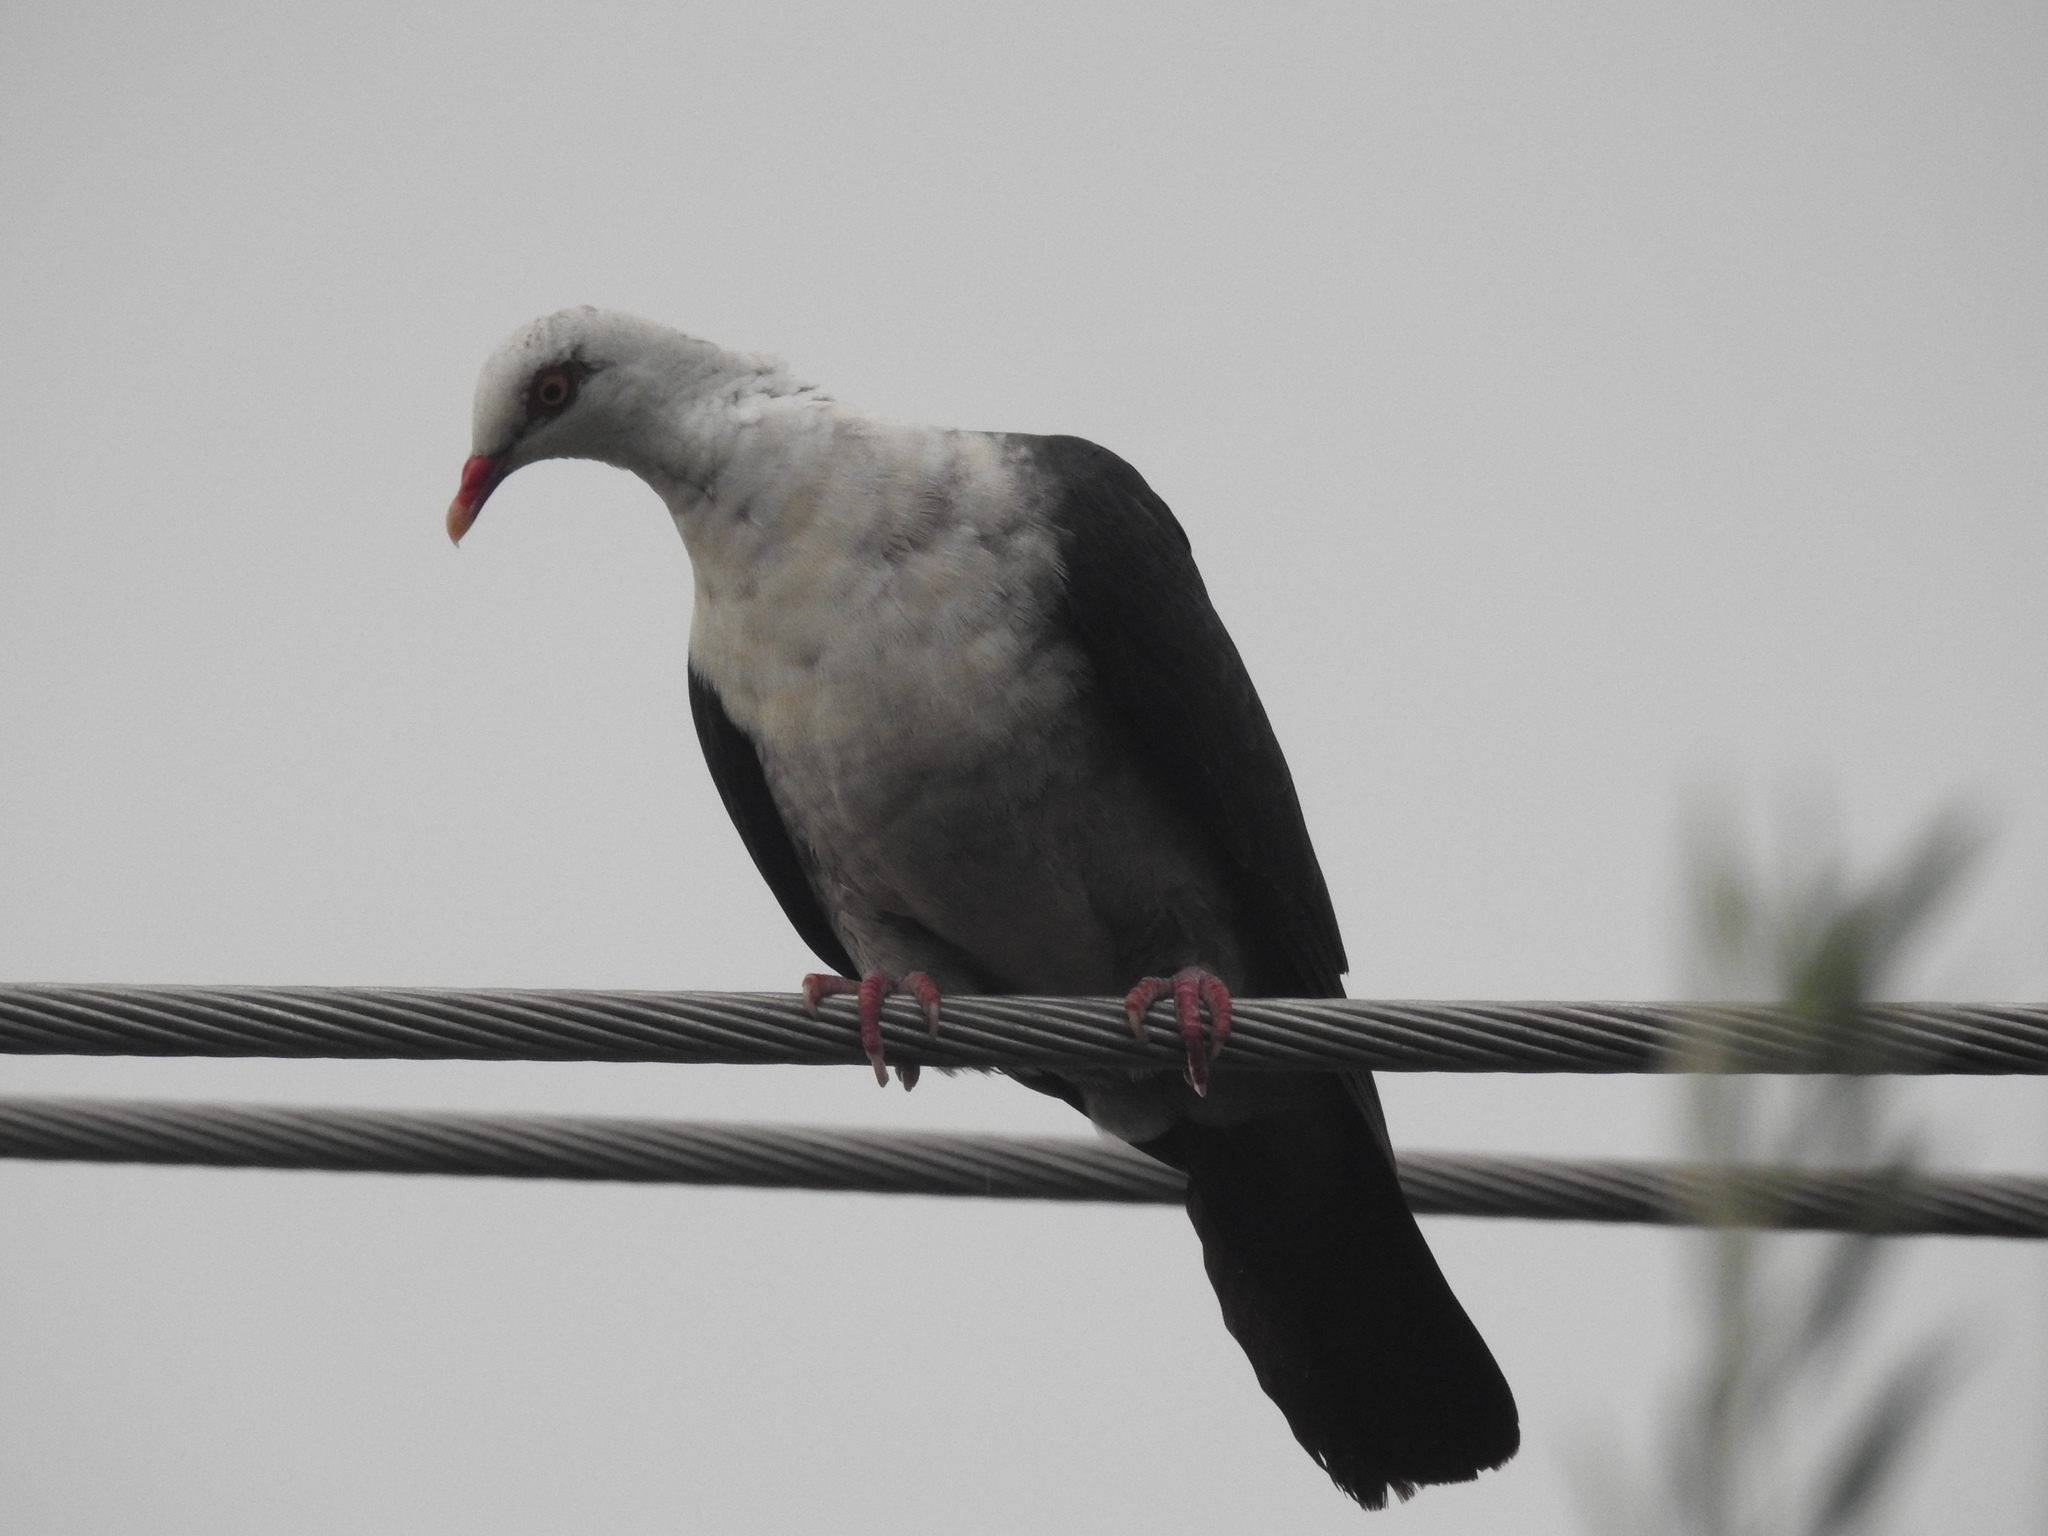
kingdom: Animalia
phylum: Chordata
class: Aves
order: Columbiformes
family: Columbidae
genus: Columba
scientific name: Columba leucomela
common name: White-headed pigeon
